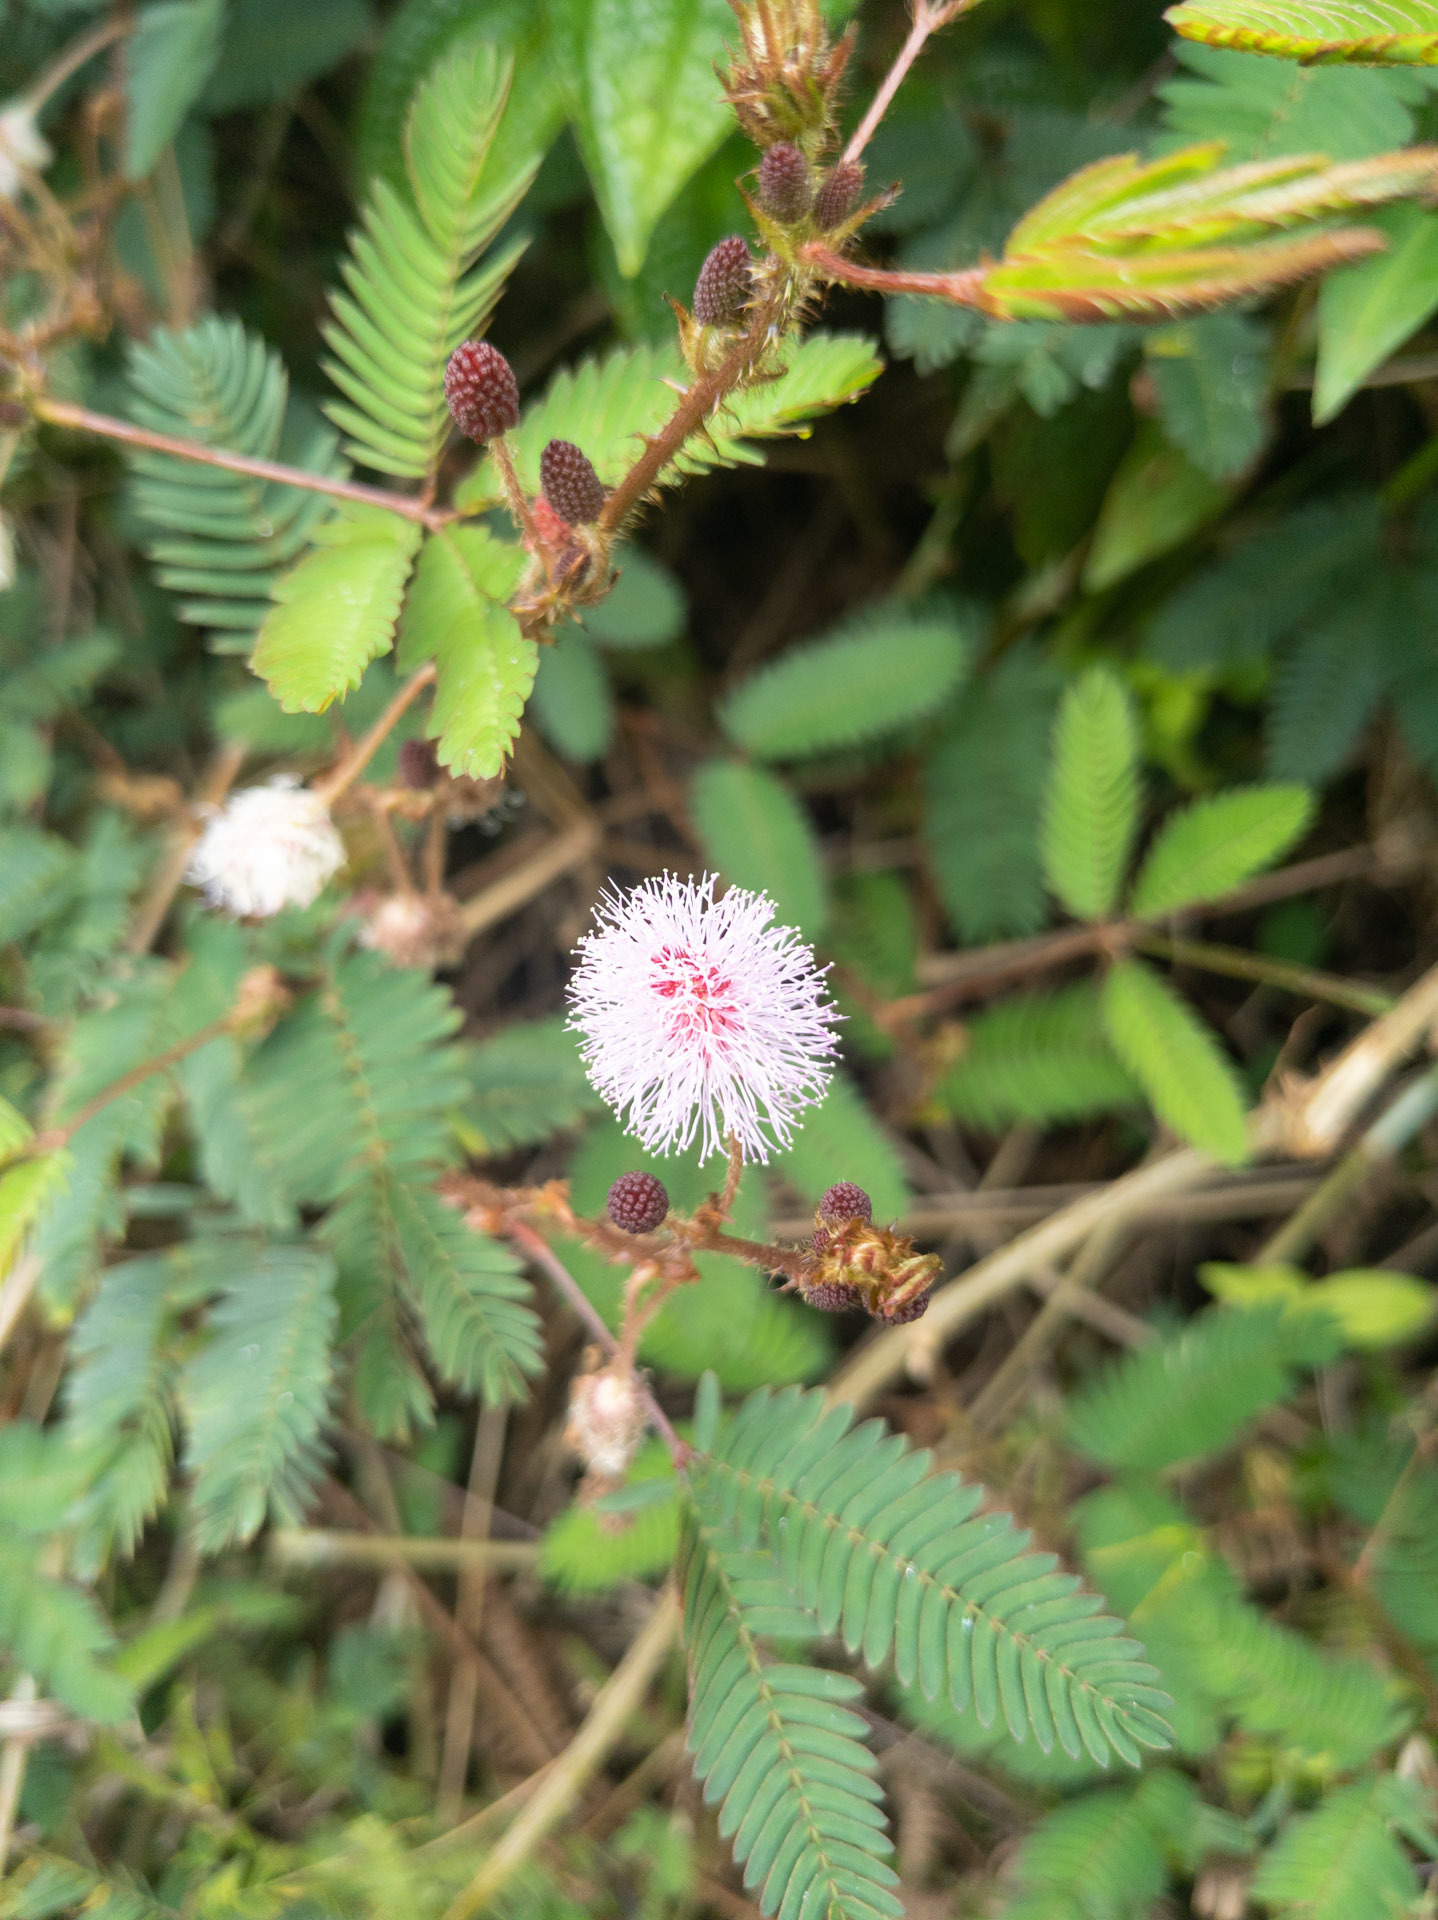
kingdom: Plantae
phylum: Tracheophyta
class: Magnoliopsida
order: Fabales
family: Fabaceae
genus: Mimosa
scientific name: Mimosa pudica
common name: Sensitive plant
